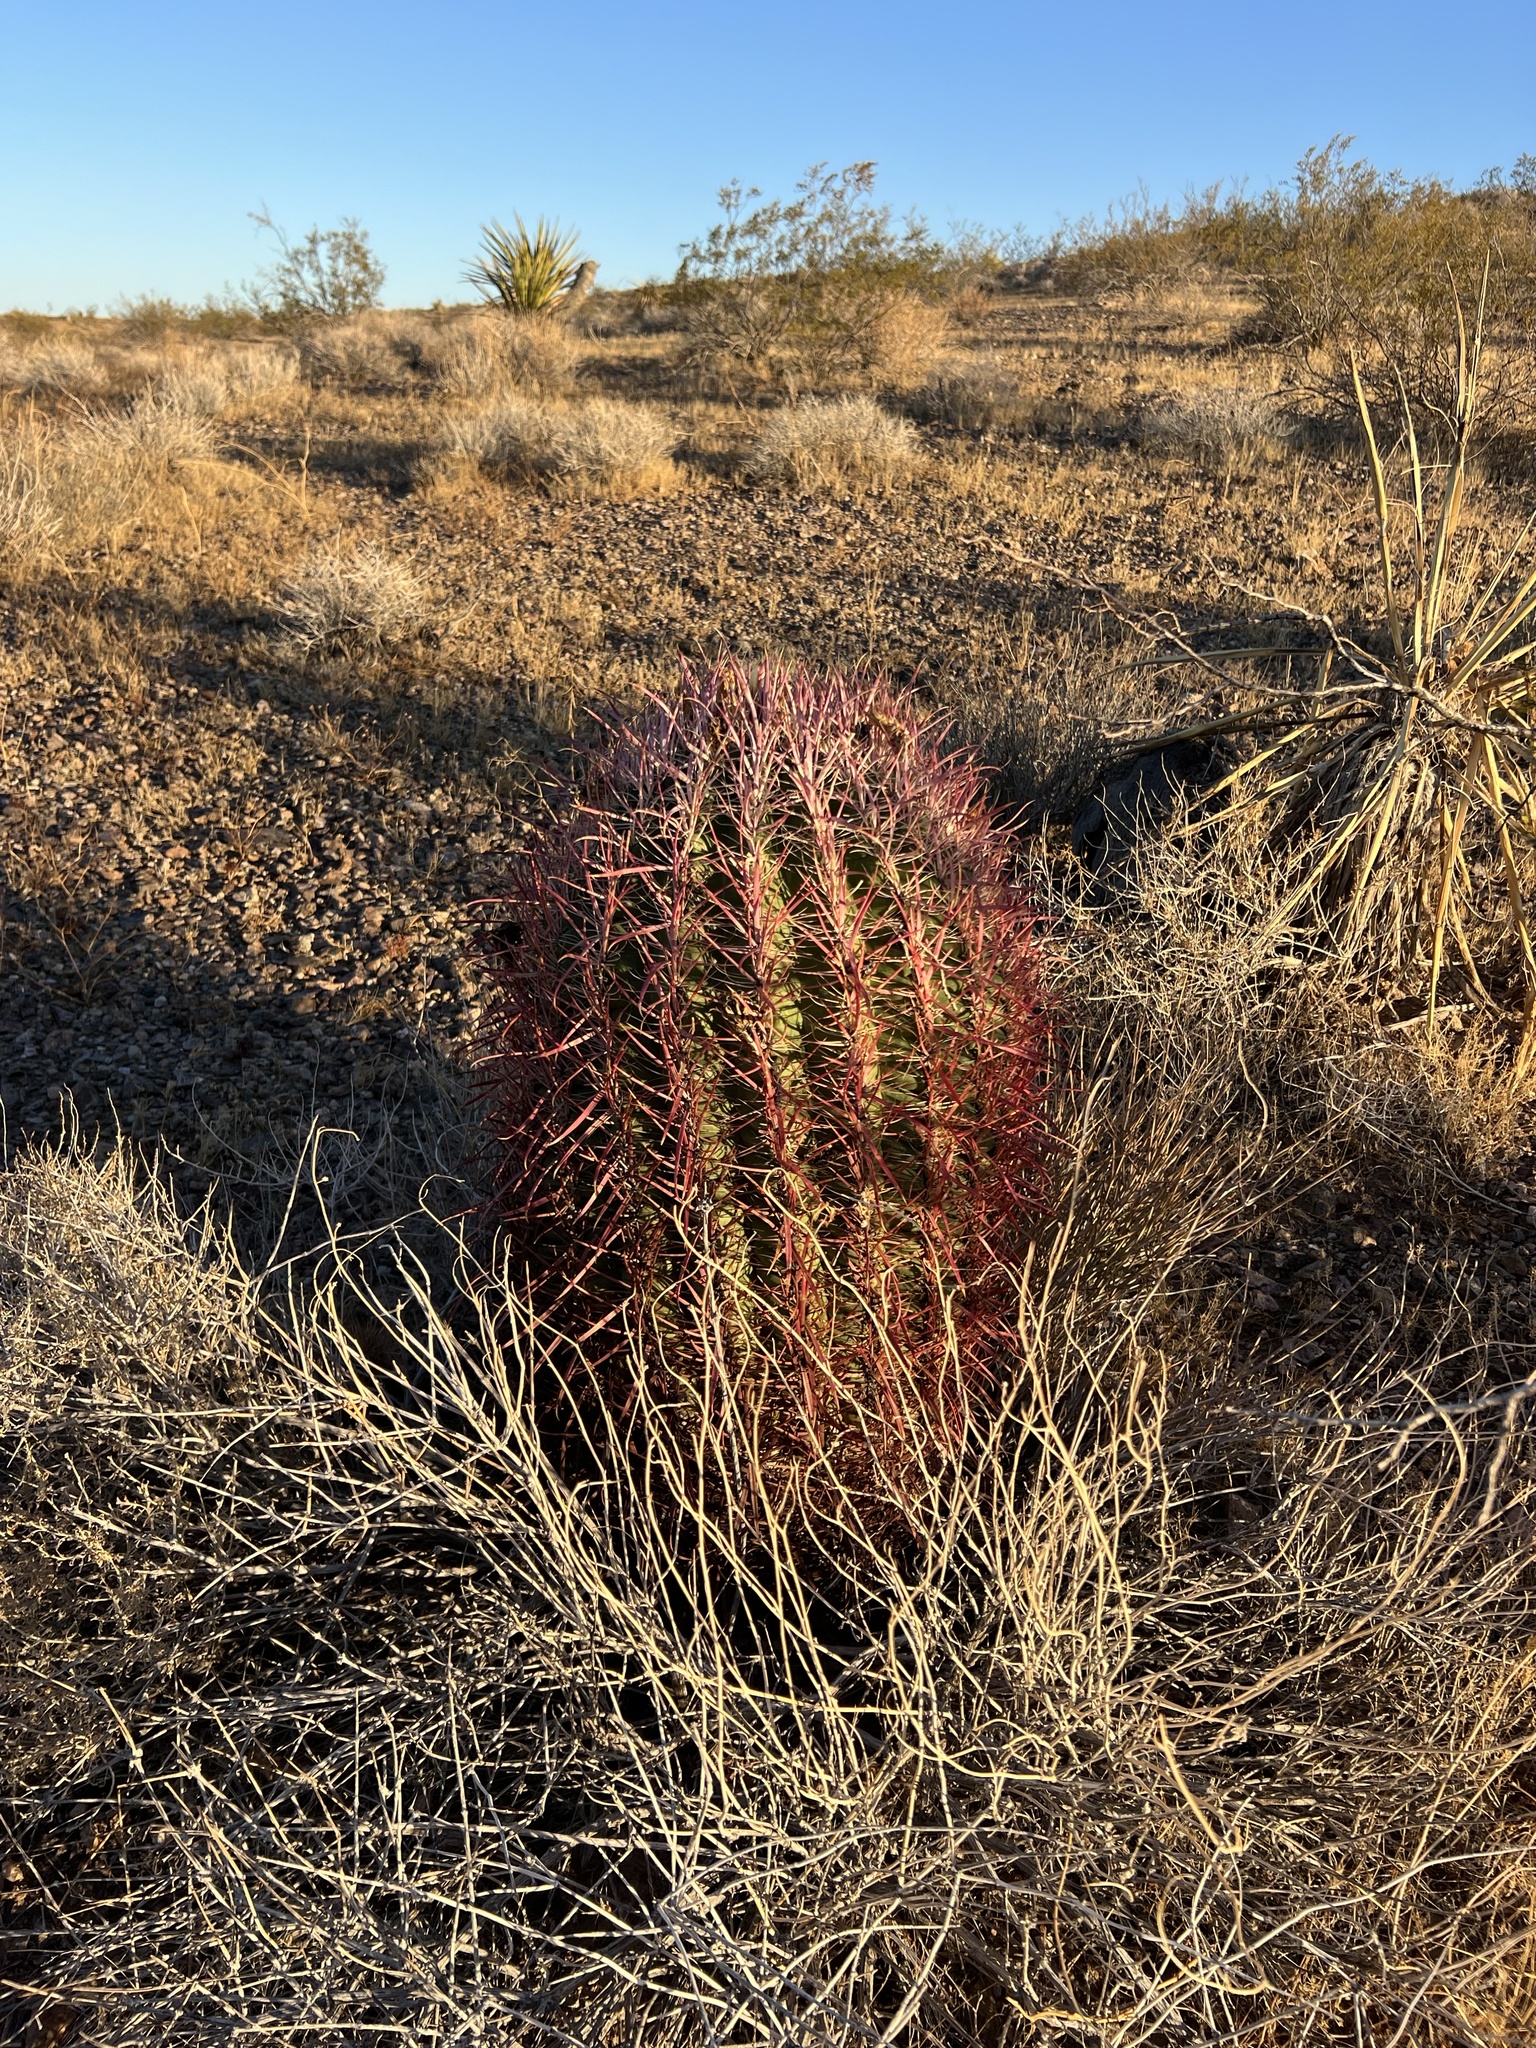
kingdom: Plantae
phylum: Tracheophyta
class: Magnoliopsida
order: Caryophyllales
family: Cactaceae
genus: Ferocactus
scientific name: Ferocactus cylindraceus
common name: California barrel cactus
